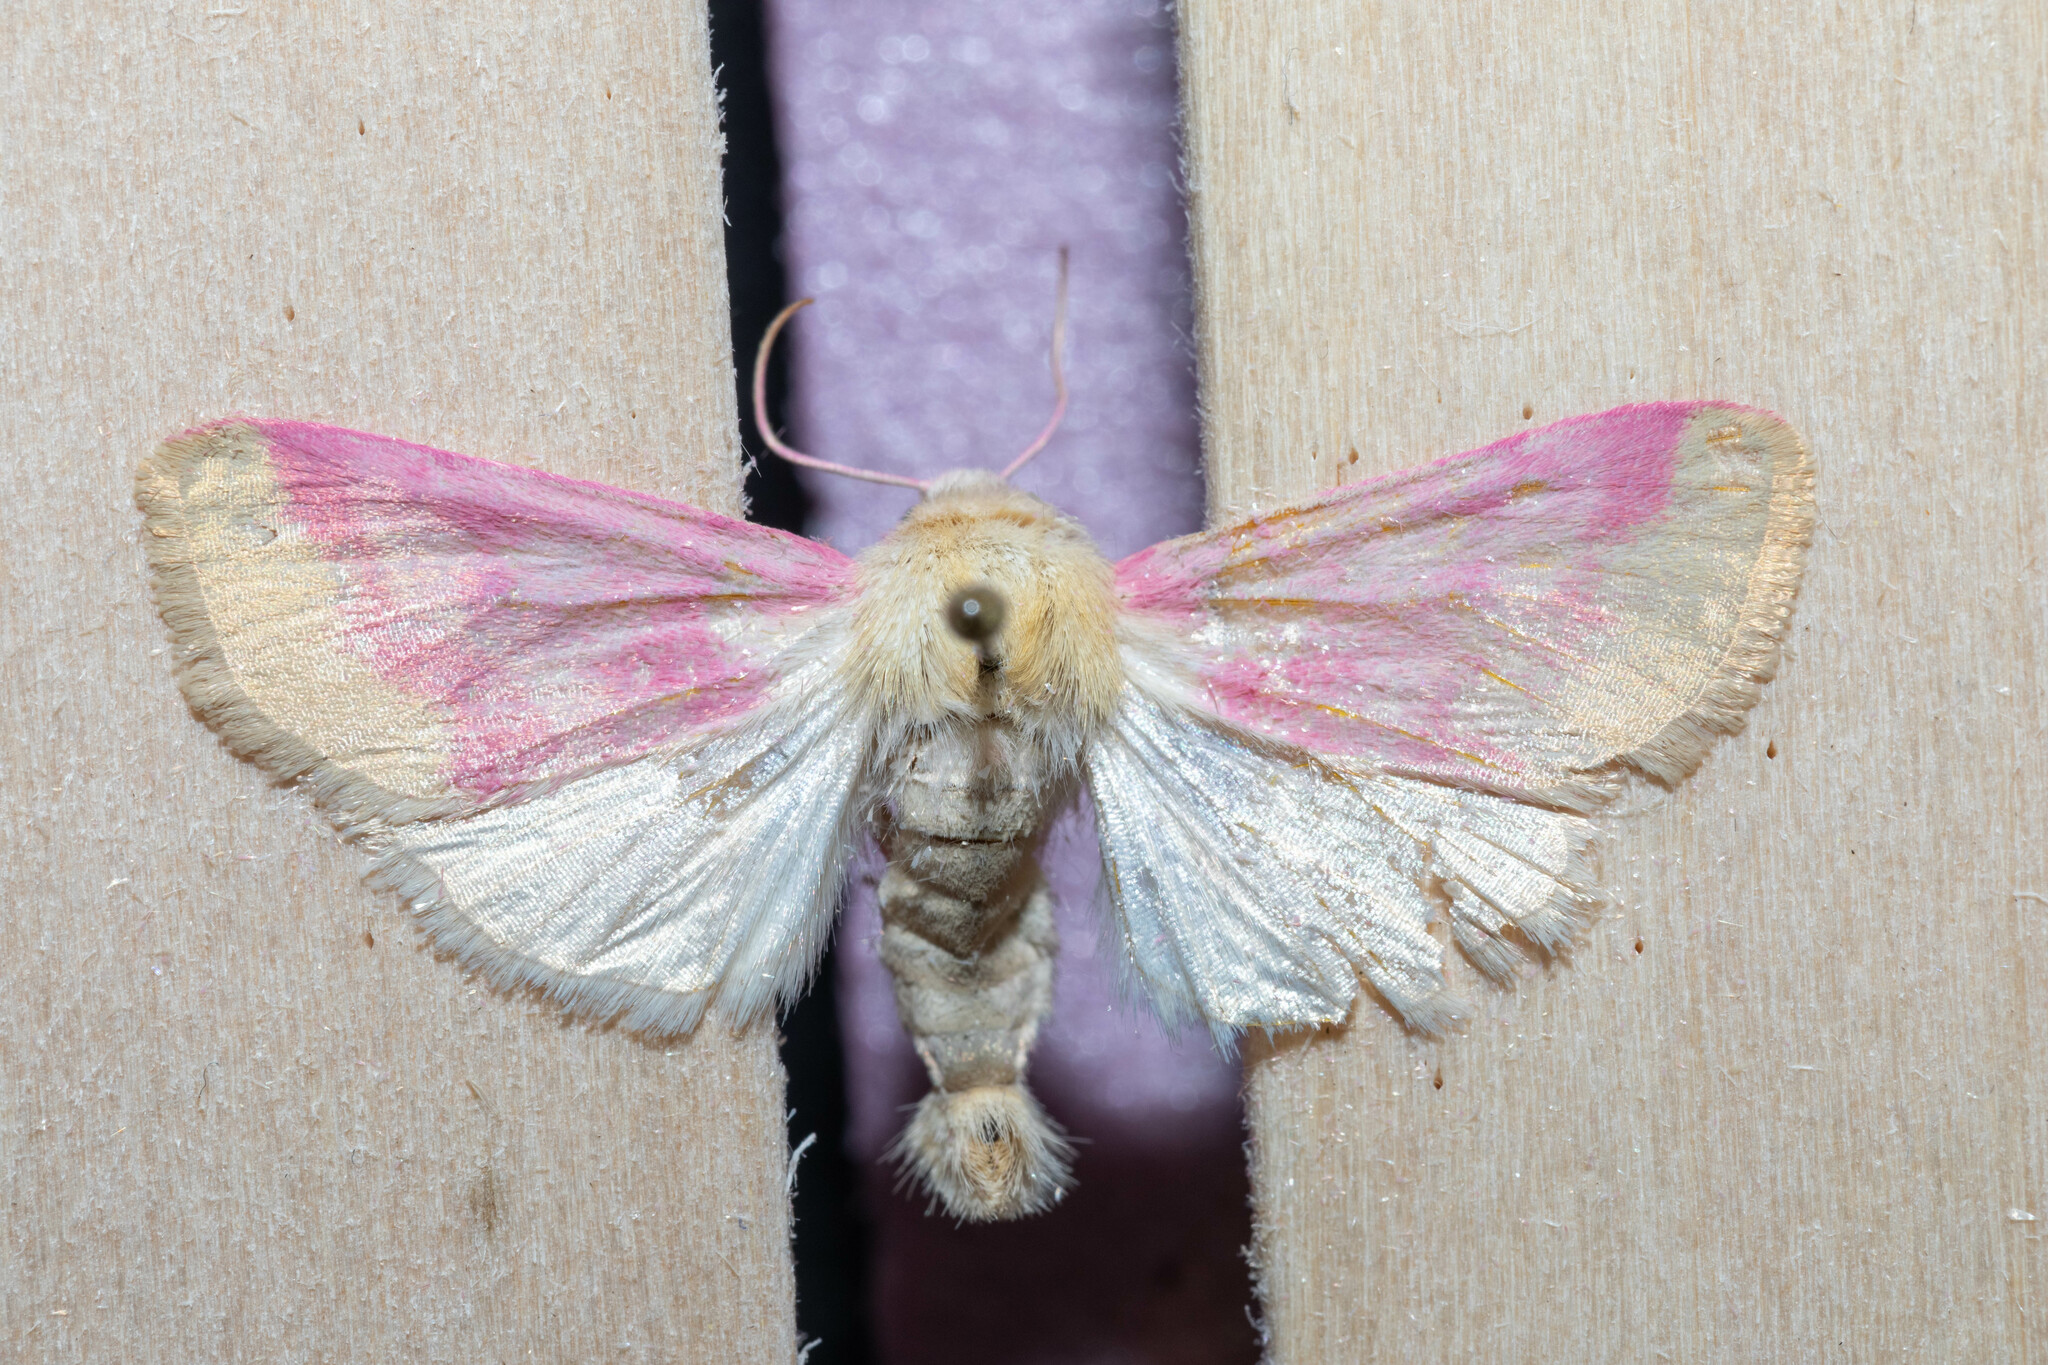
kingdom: Animalia
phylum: Arthropoda
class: Insecta
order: Lepidoptera
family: Noctuidae
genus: Schinia
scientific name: Schinia florida
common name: Primrose moth
